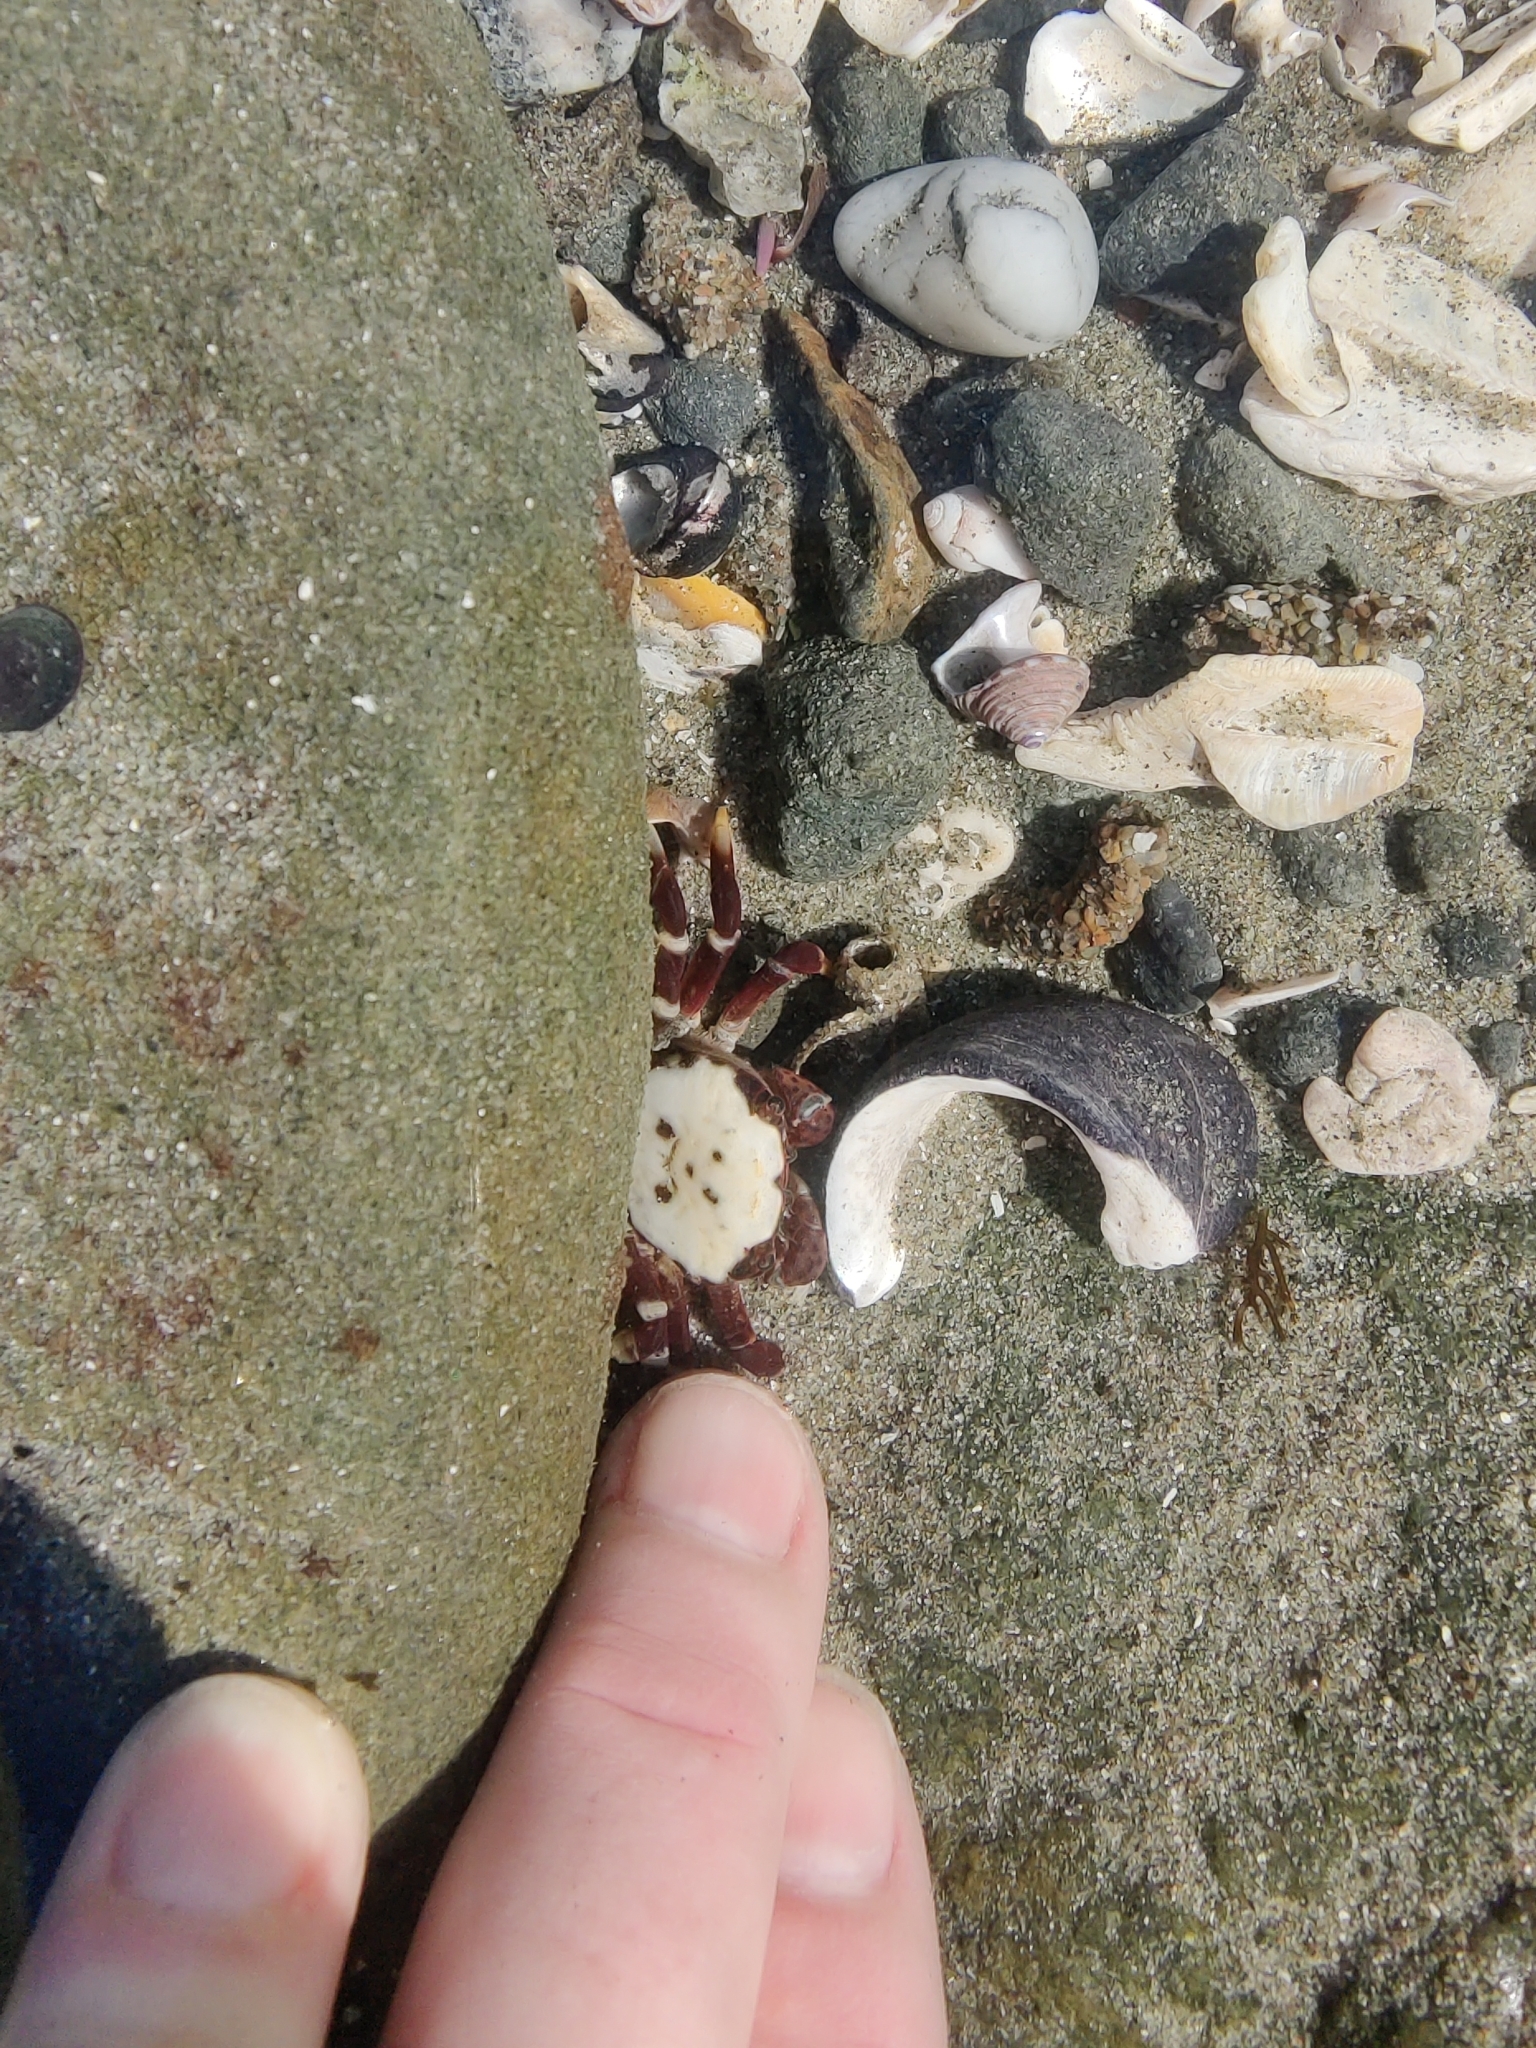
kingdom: Animalia
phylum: Arthropoda
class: Malacostraca
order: Decapoda
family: Varunidae
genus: Hemigrapsus
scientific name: Hemigrapsus nudus
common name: Purple shore crab
